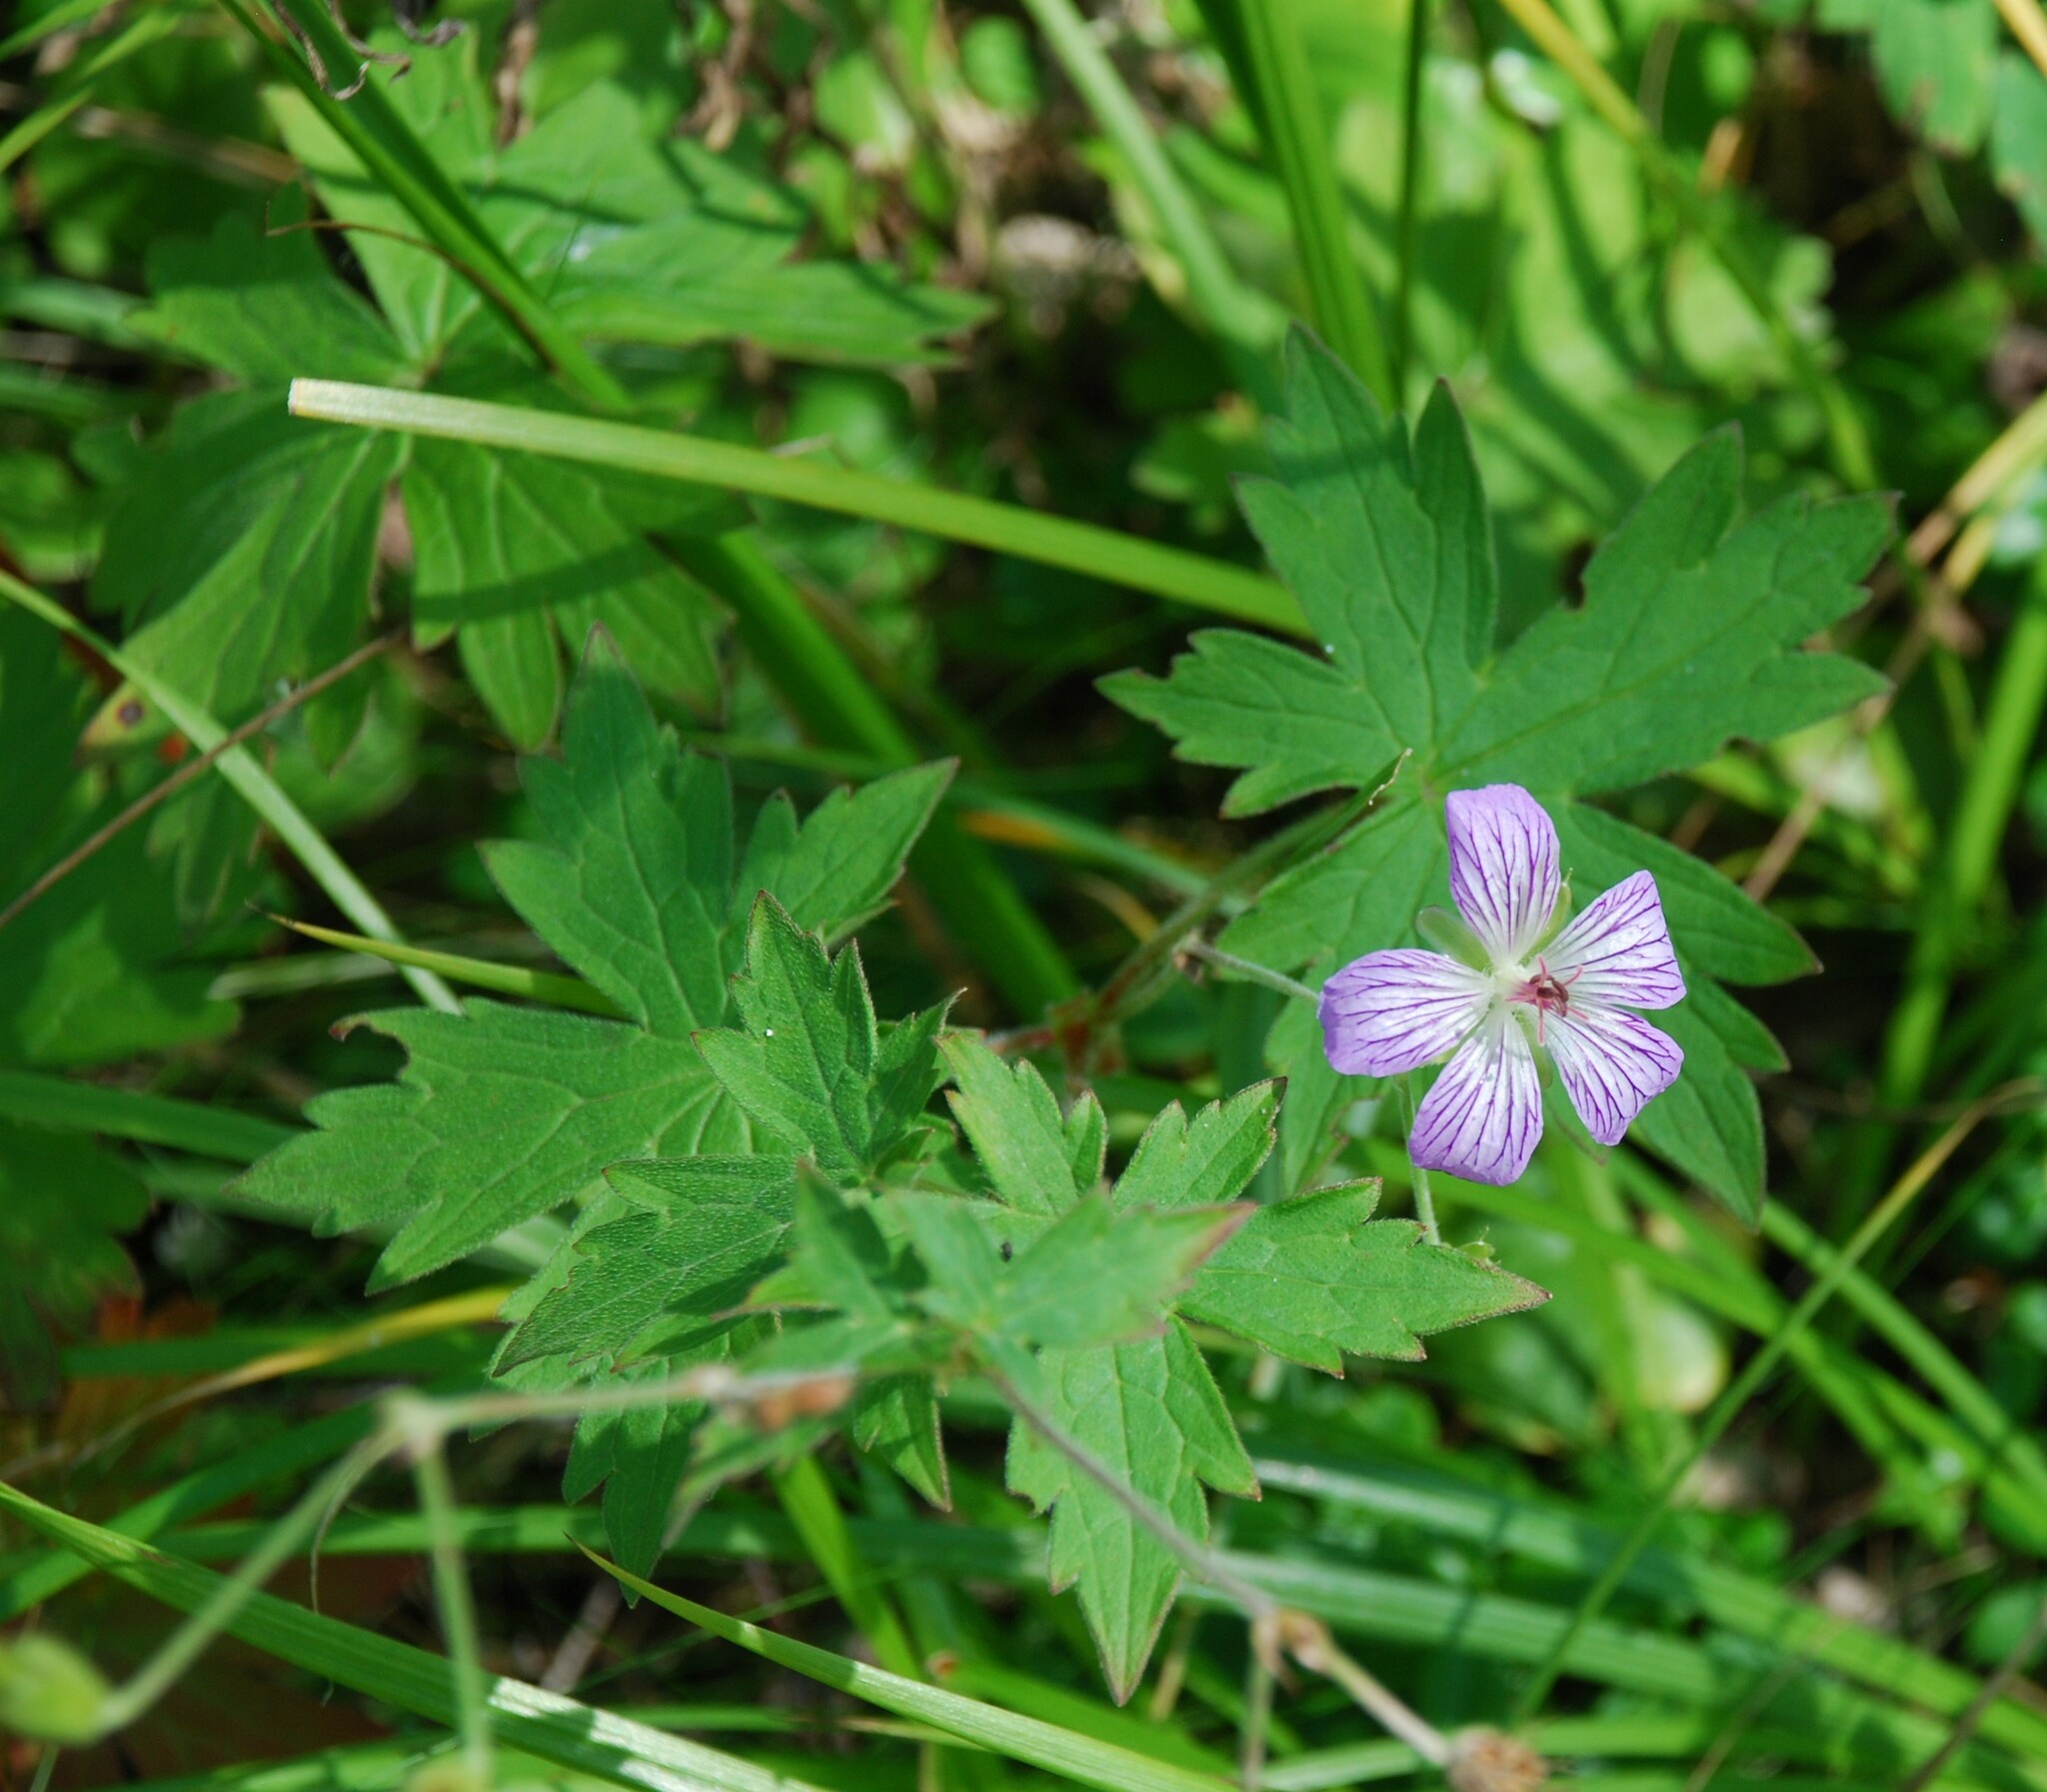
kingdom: Plantae
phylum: Tracheophyta
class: Magnoliopsida
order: Geraniales
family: Geraniaceae
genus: Geranium
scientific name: Geranium wlassovianum
